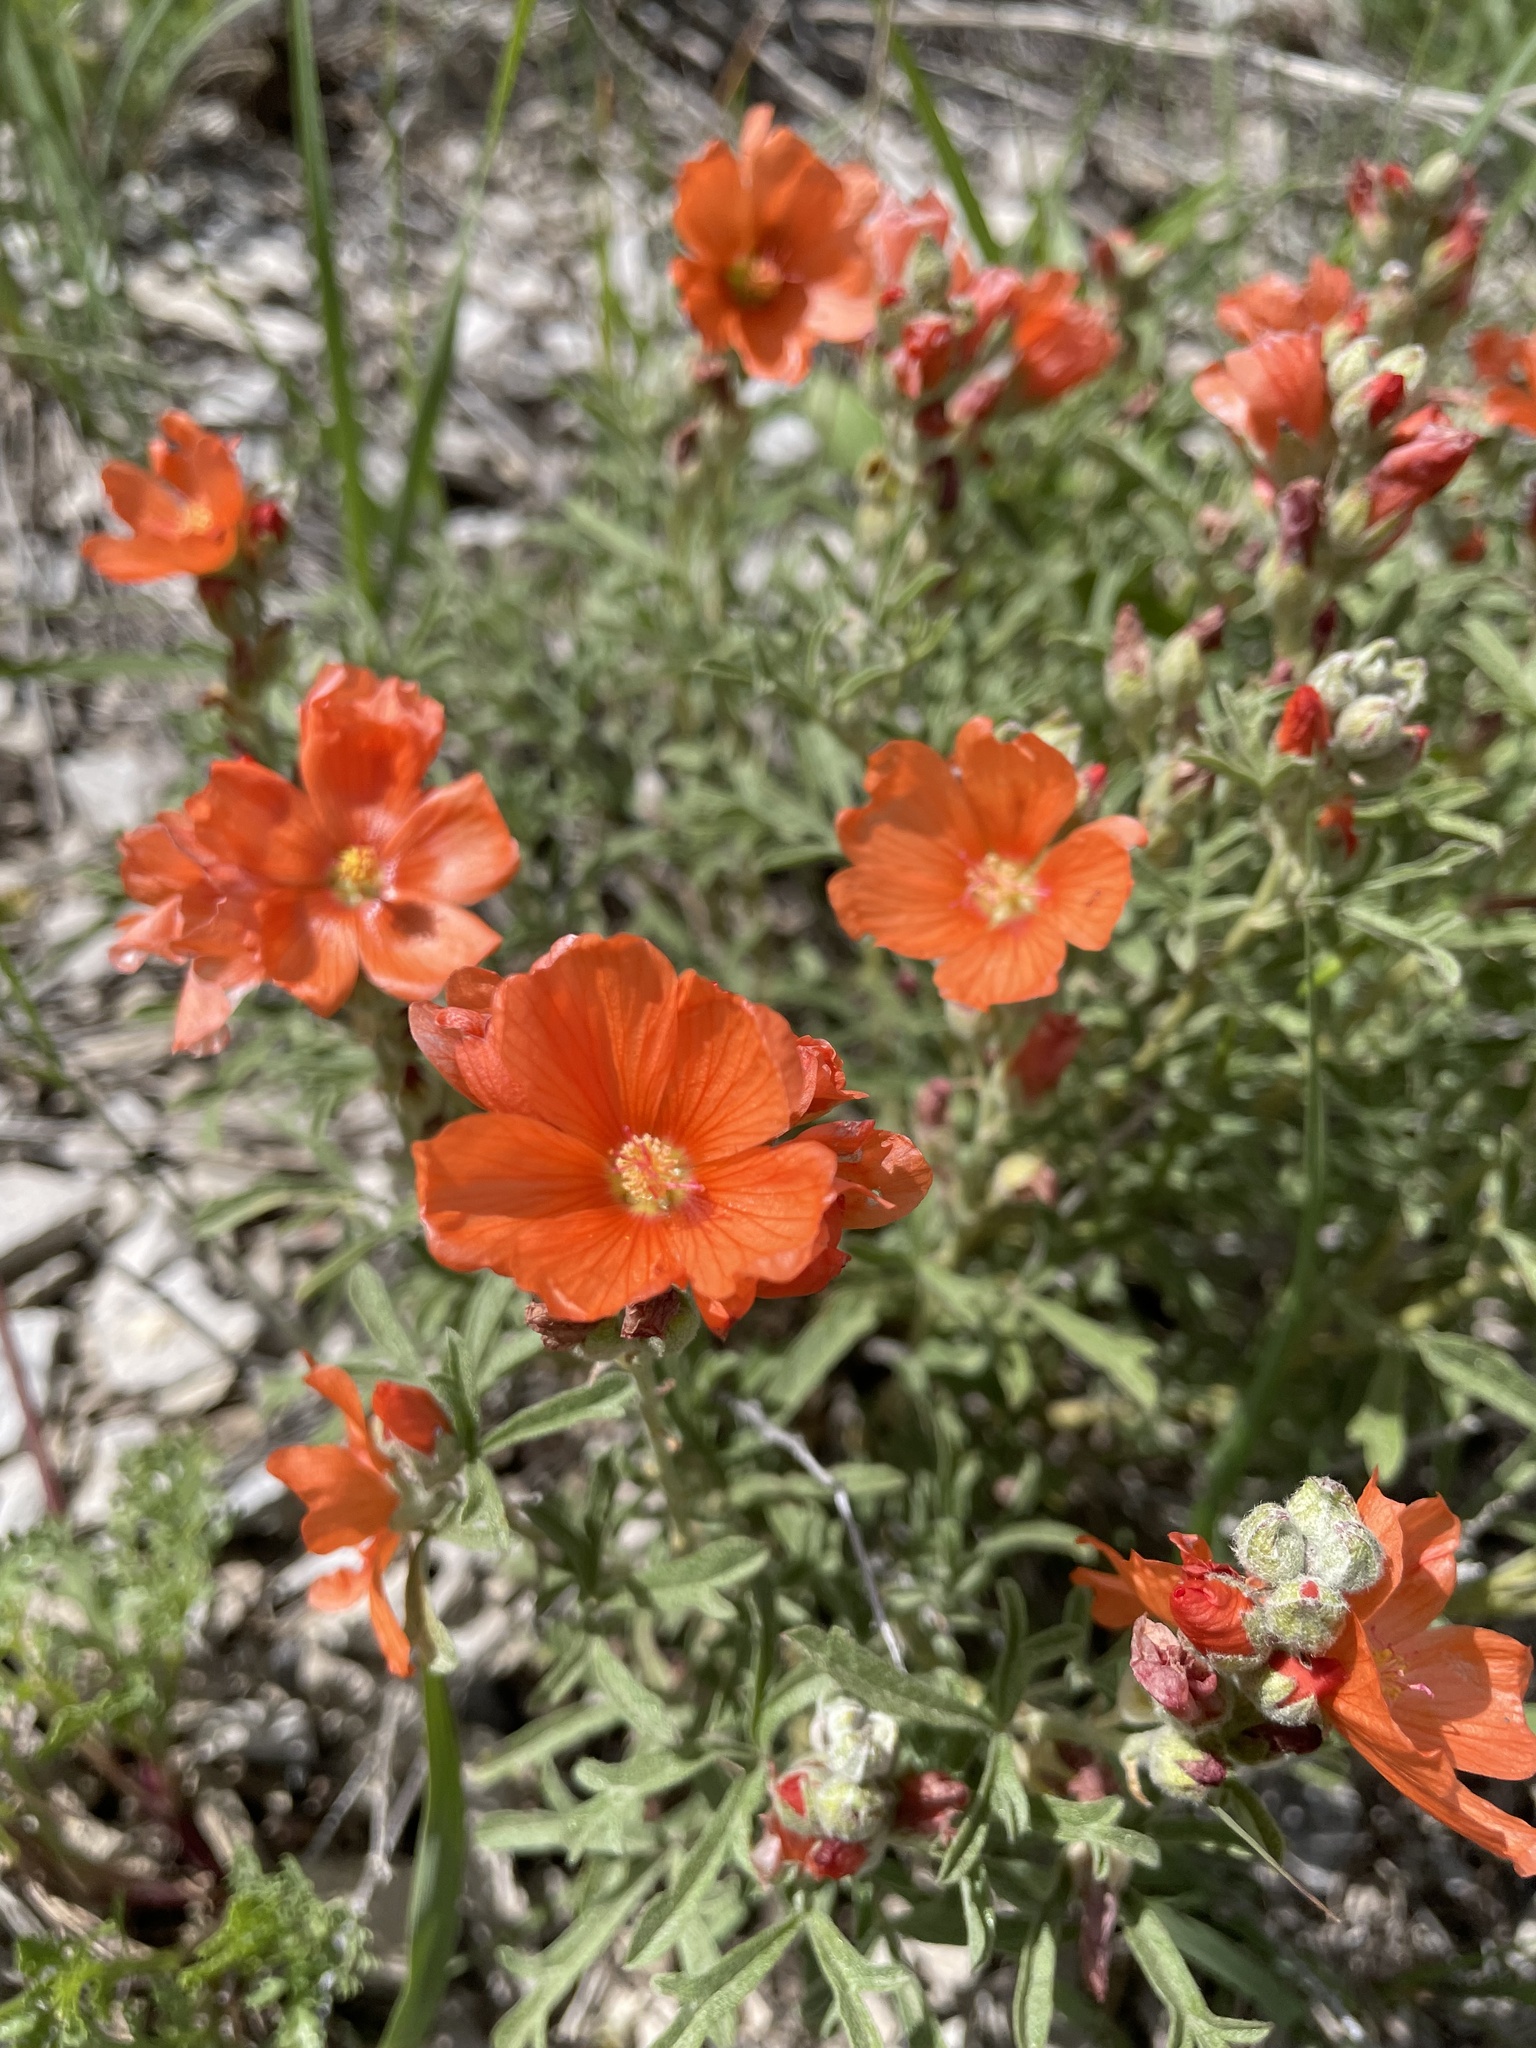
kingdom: Plantae
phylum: Tracheophyta
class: Magnoliopsida
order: Malvales
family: Malvaceae
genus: Sphaeralcea
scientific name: Sphaeralcea coccinea
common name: Moss-rose
